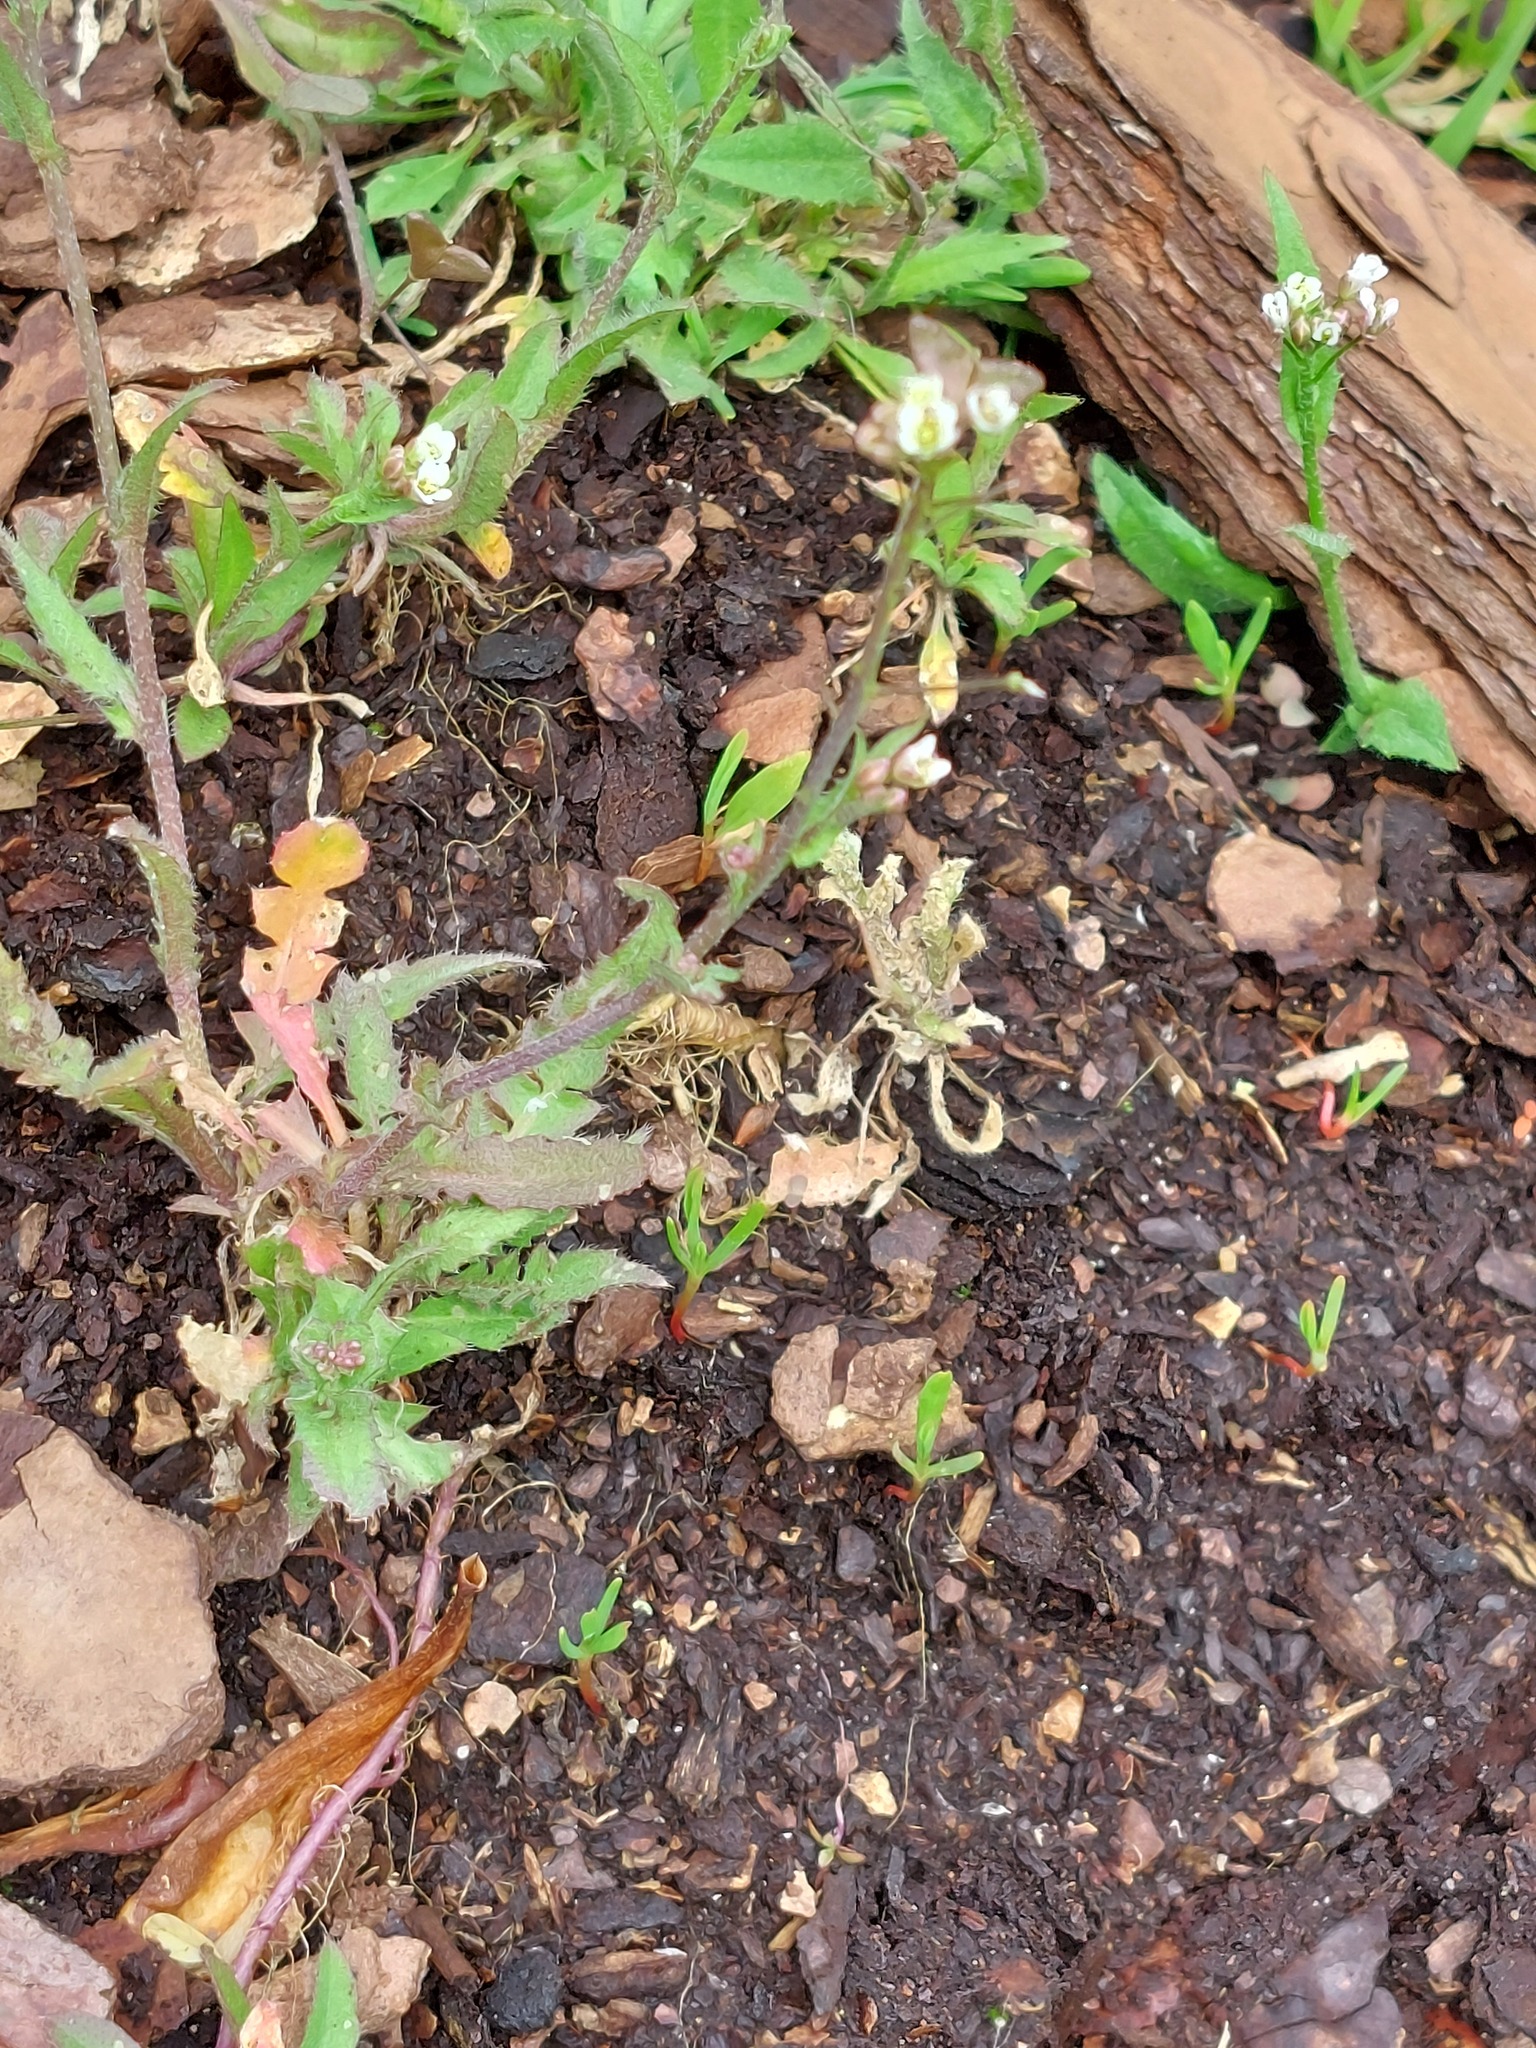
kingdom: Plantae
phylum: Tracheophyta
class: Magnoliopsida
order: Brassicales
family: Brassicaceae
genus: Capsella
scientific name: Capsella bursa-pastoris
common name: Shepherd's purse
